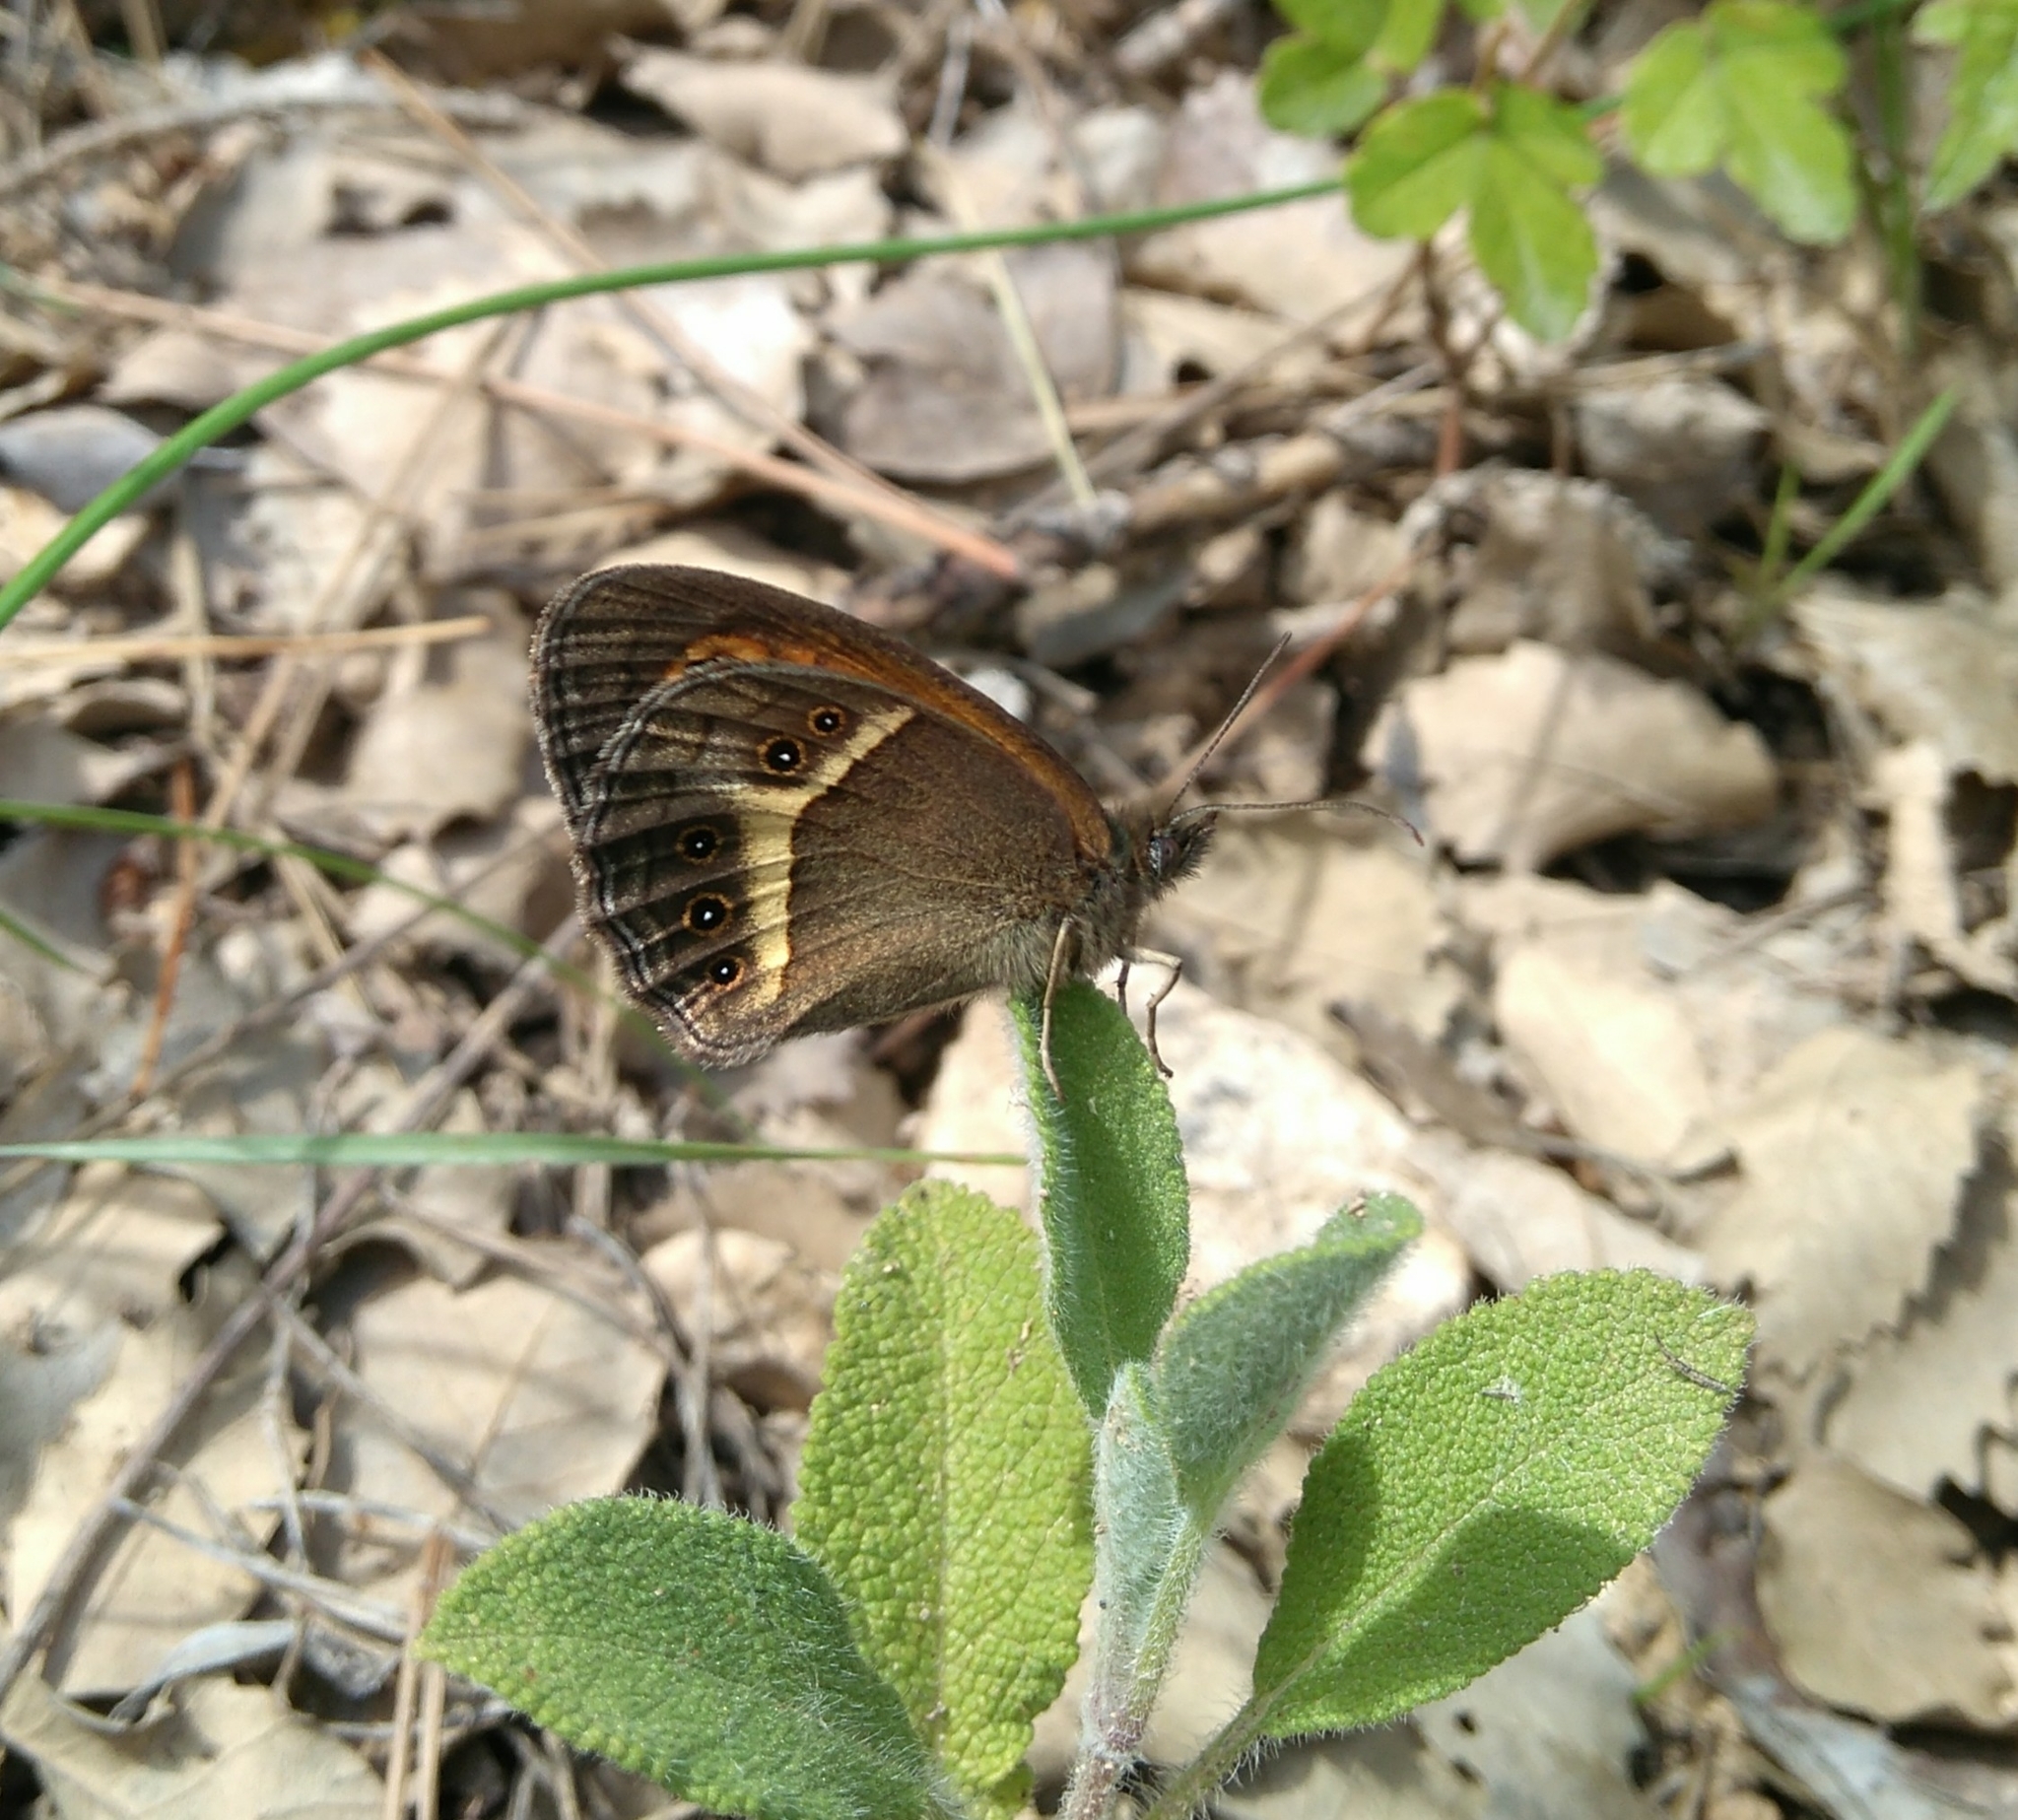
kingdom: Animalia
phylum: Arthropoda
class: Insecta
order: Lepidoptera
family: Nymphalidae
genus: Pyronia
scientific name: Pyronia bathseba
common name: Spanish gatekeeper
